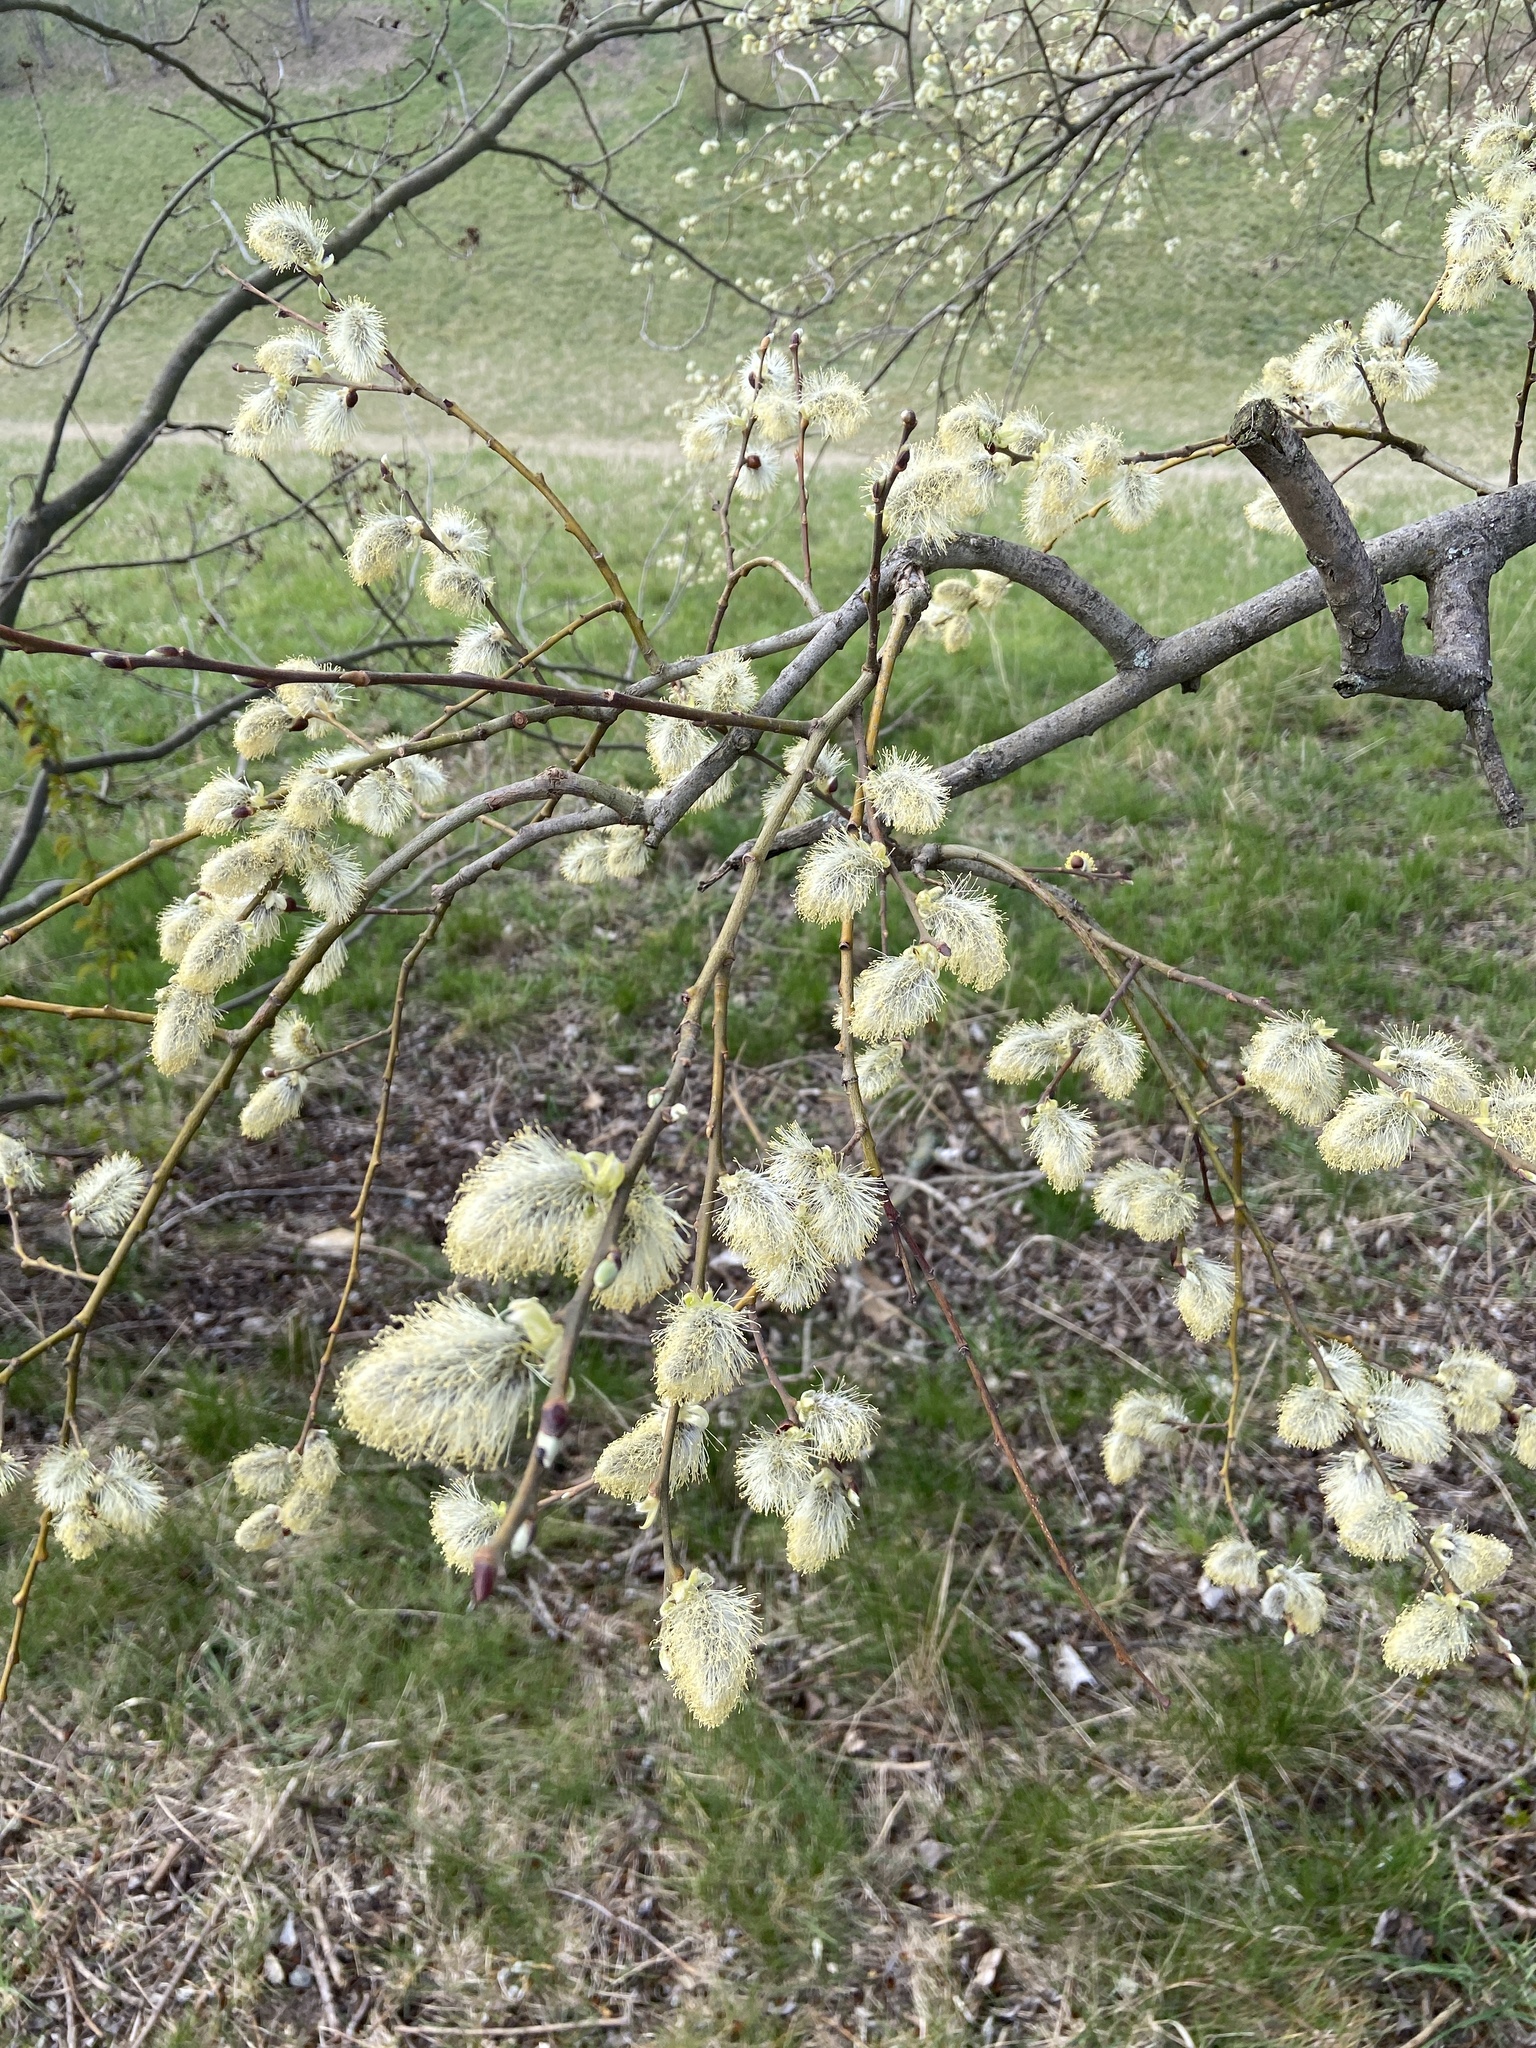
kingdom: Plantae
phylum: Tracheophyta
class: Magnoliopsida
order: Malpighiales
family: Salicaceae
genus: Salix
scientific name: Salix caprea
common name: Goat willow
